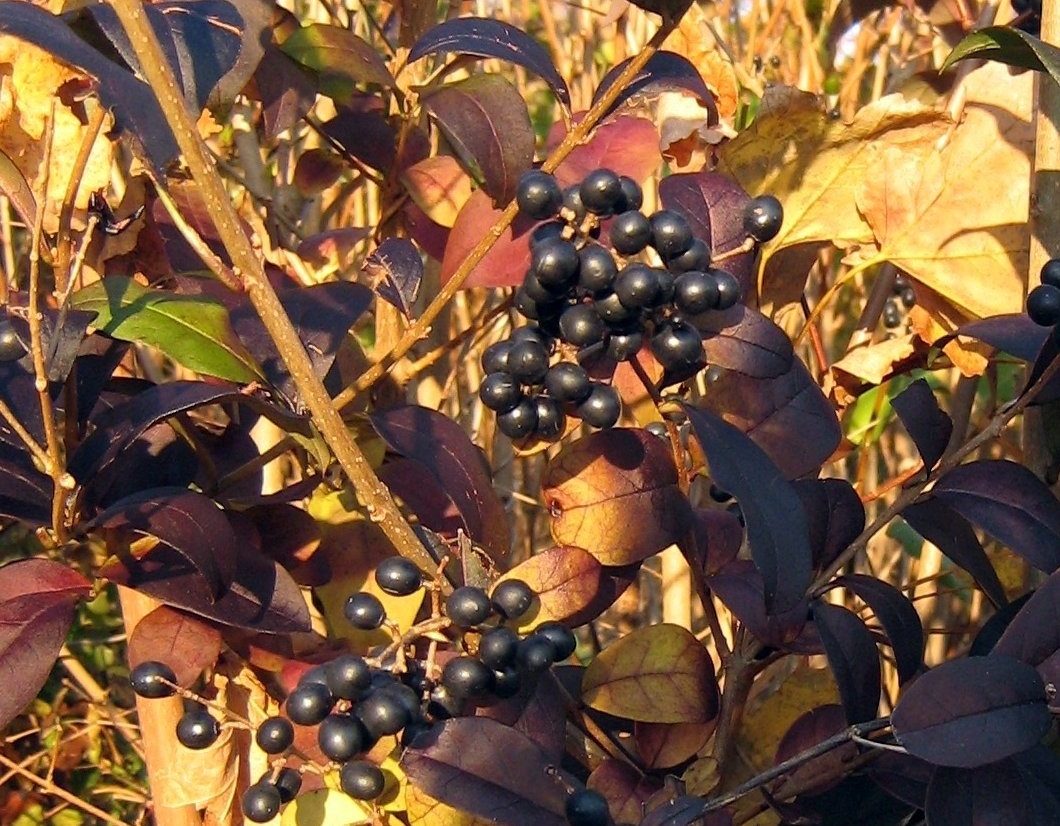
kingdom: Plantae
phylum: Tracheophyta
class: Magnoliopsida
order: Lamiales
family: Oleaceae
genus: Ligustrum
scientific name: Ligustrum ovalifolium
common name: California privet
